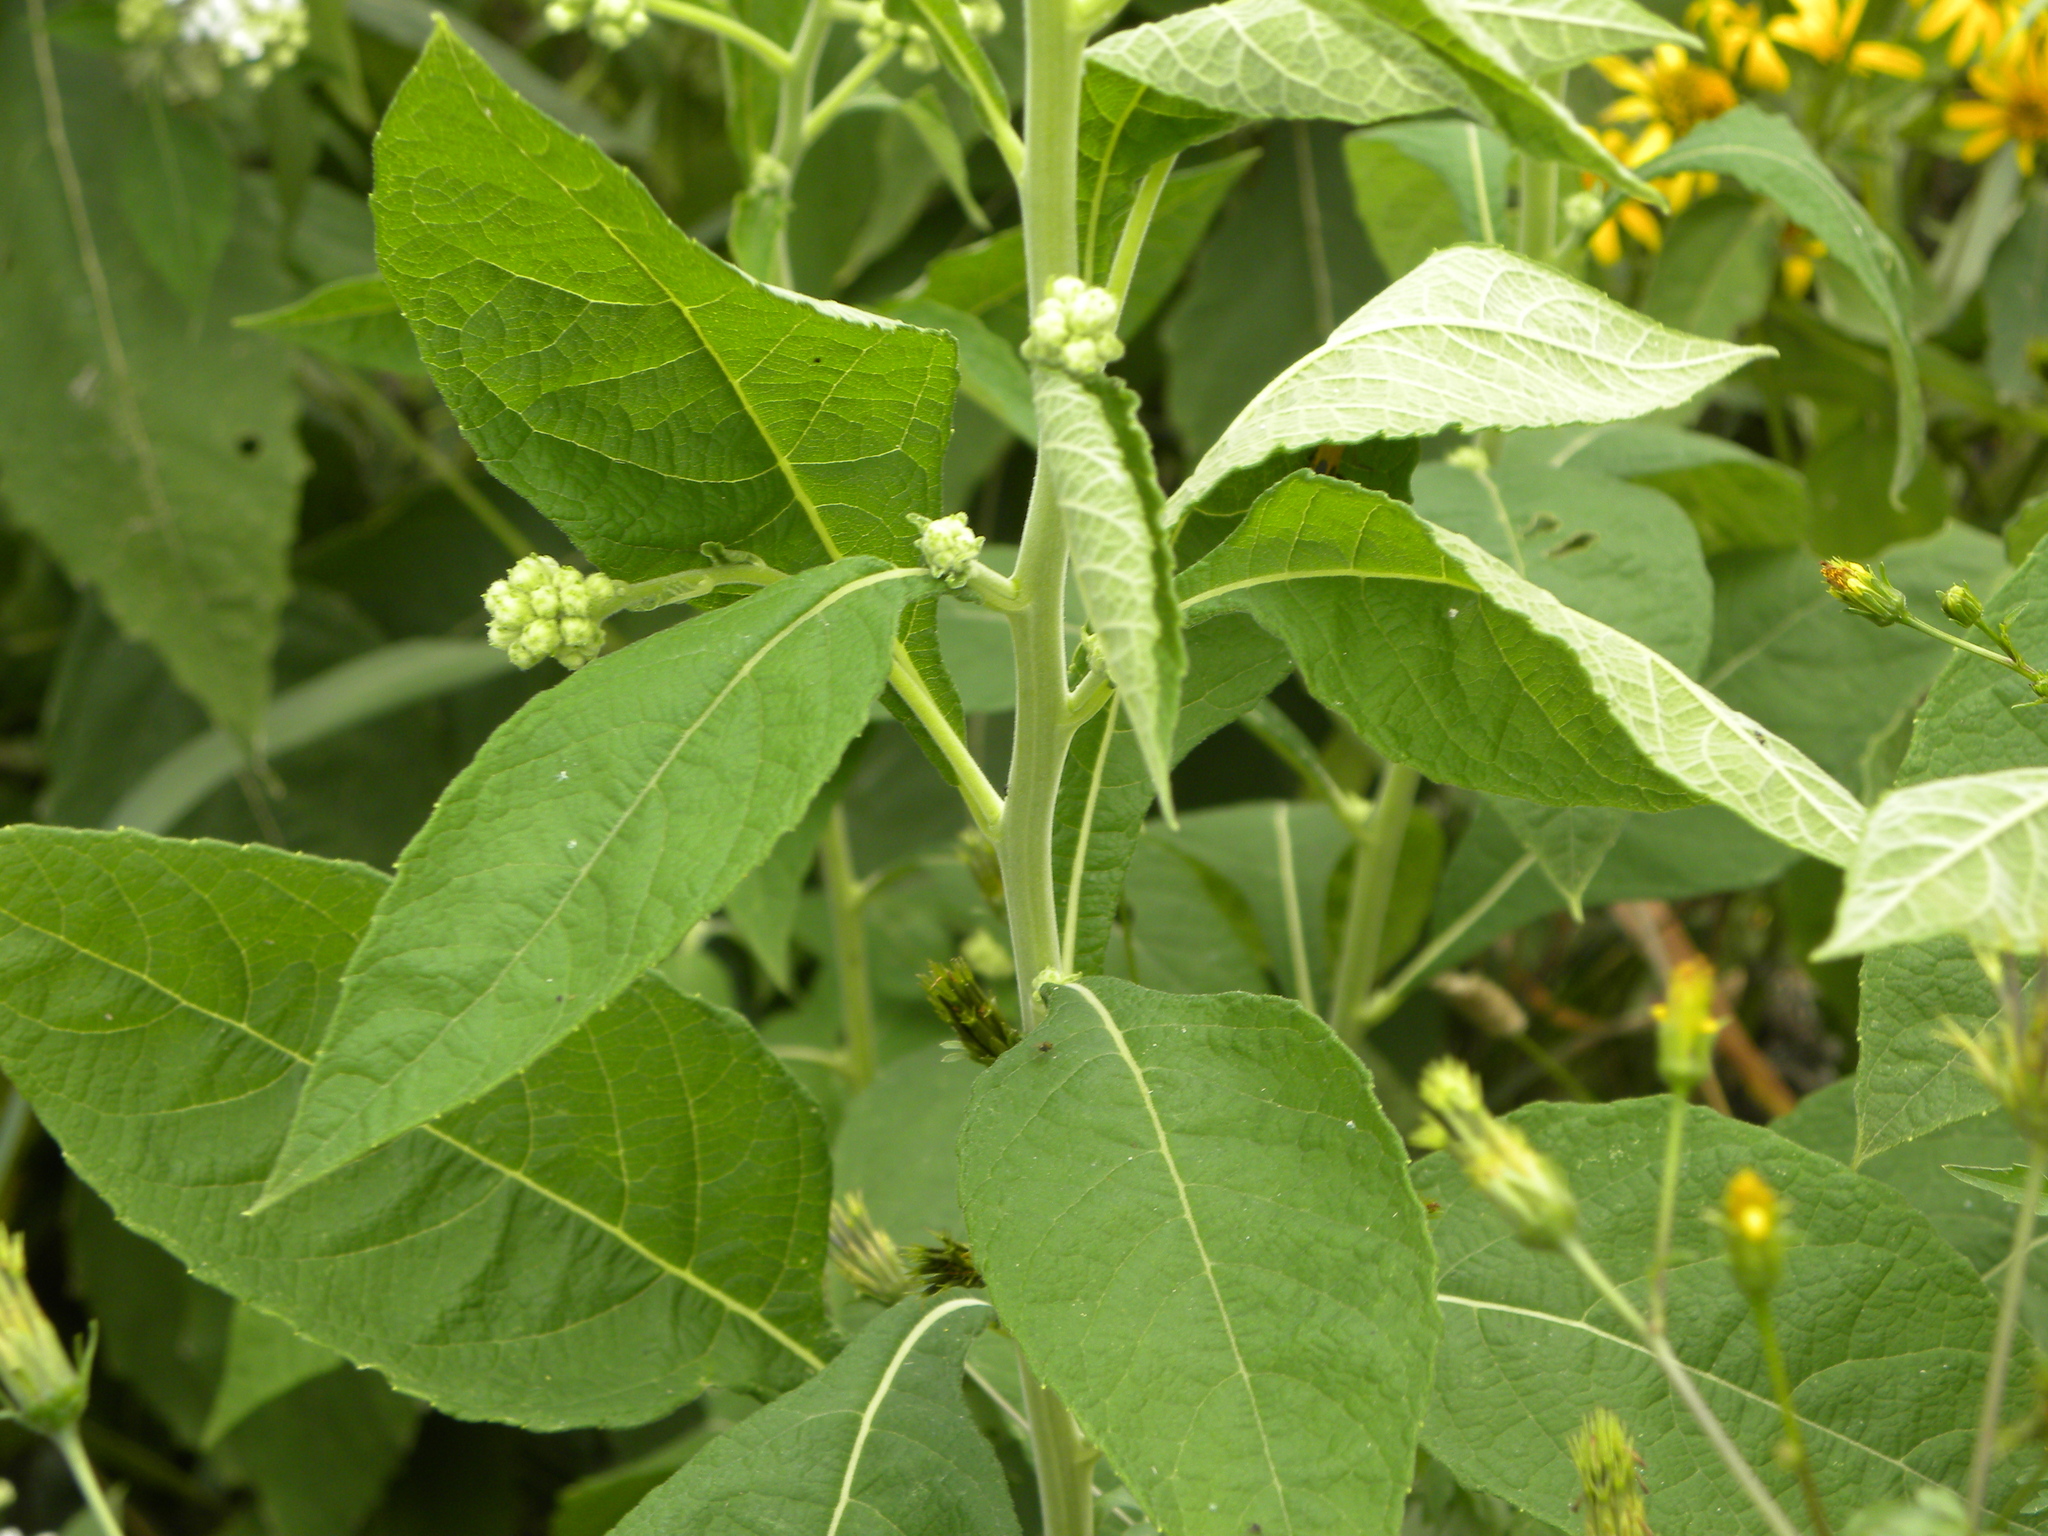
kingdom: Plantae
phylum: Tracheophyta
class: Magnoliopsida
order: Asterales
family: Asteraceae
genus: Verbesina
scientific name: Verbesina virginica
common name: Frostweed
